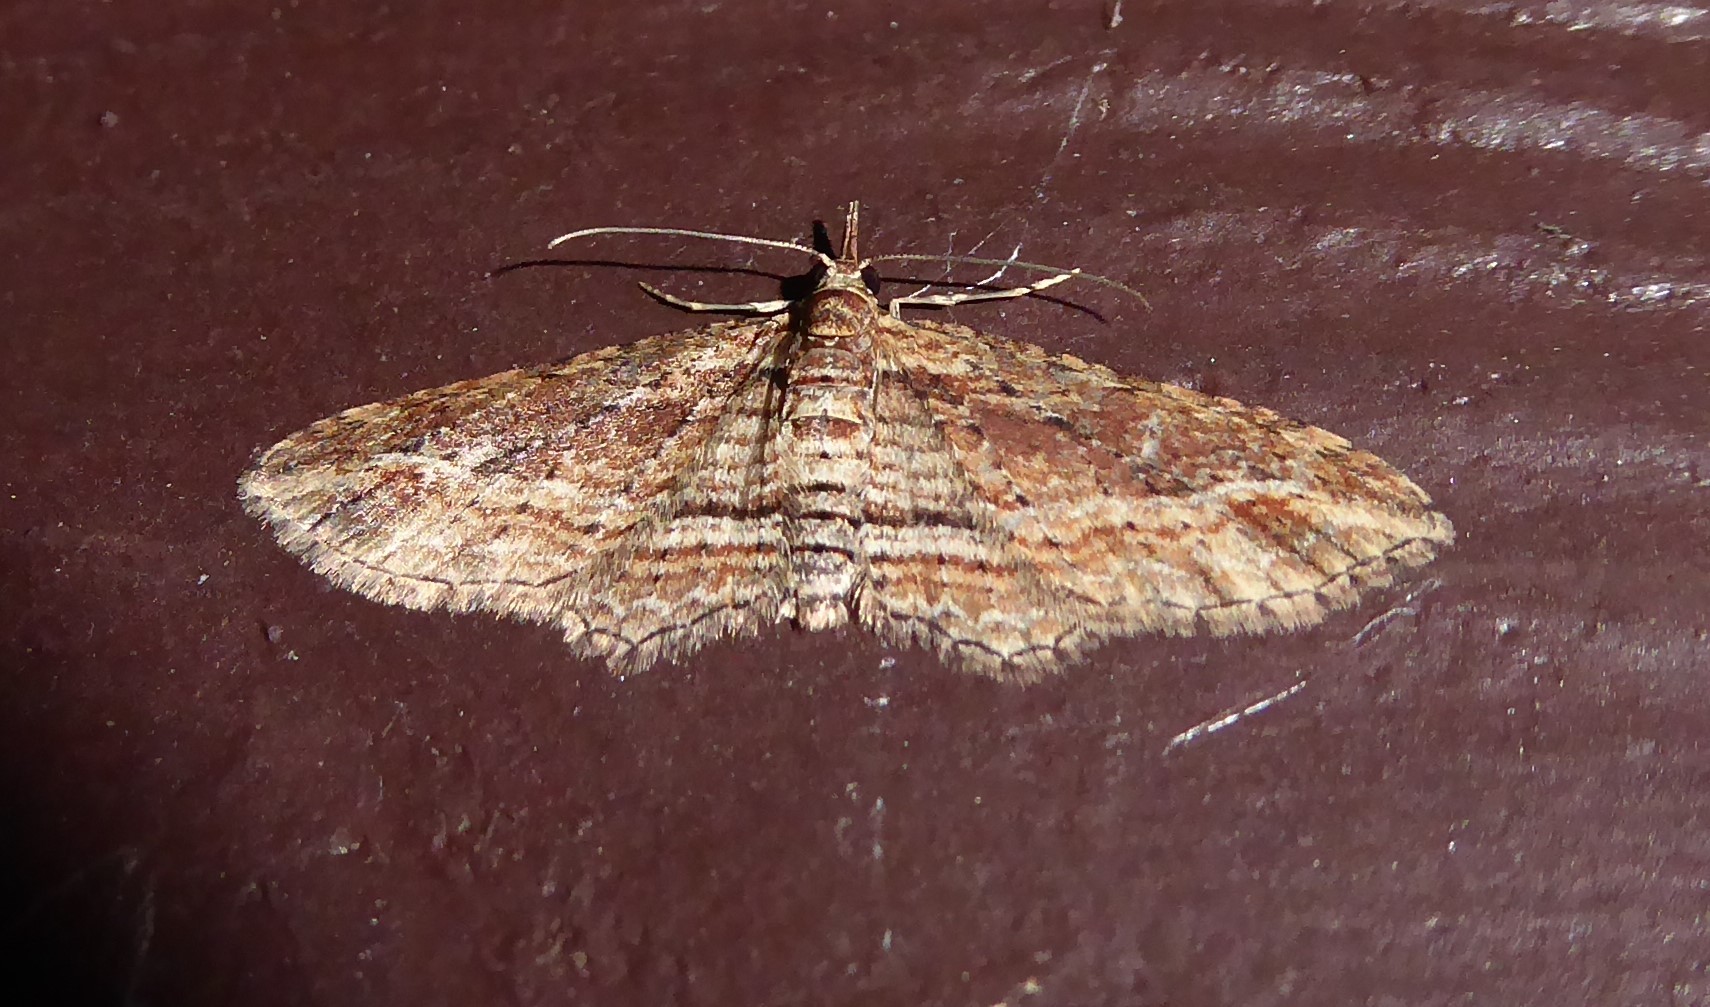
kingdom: Animalia
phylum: Arthropoda
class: Insecta
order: Lepidoptera
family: Geometridae
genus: Chloroclystis
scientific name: Chloroclystis filata
